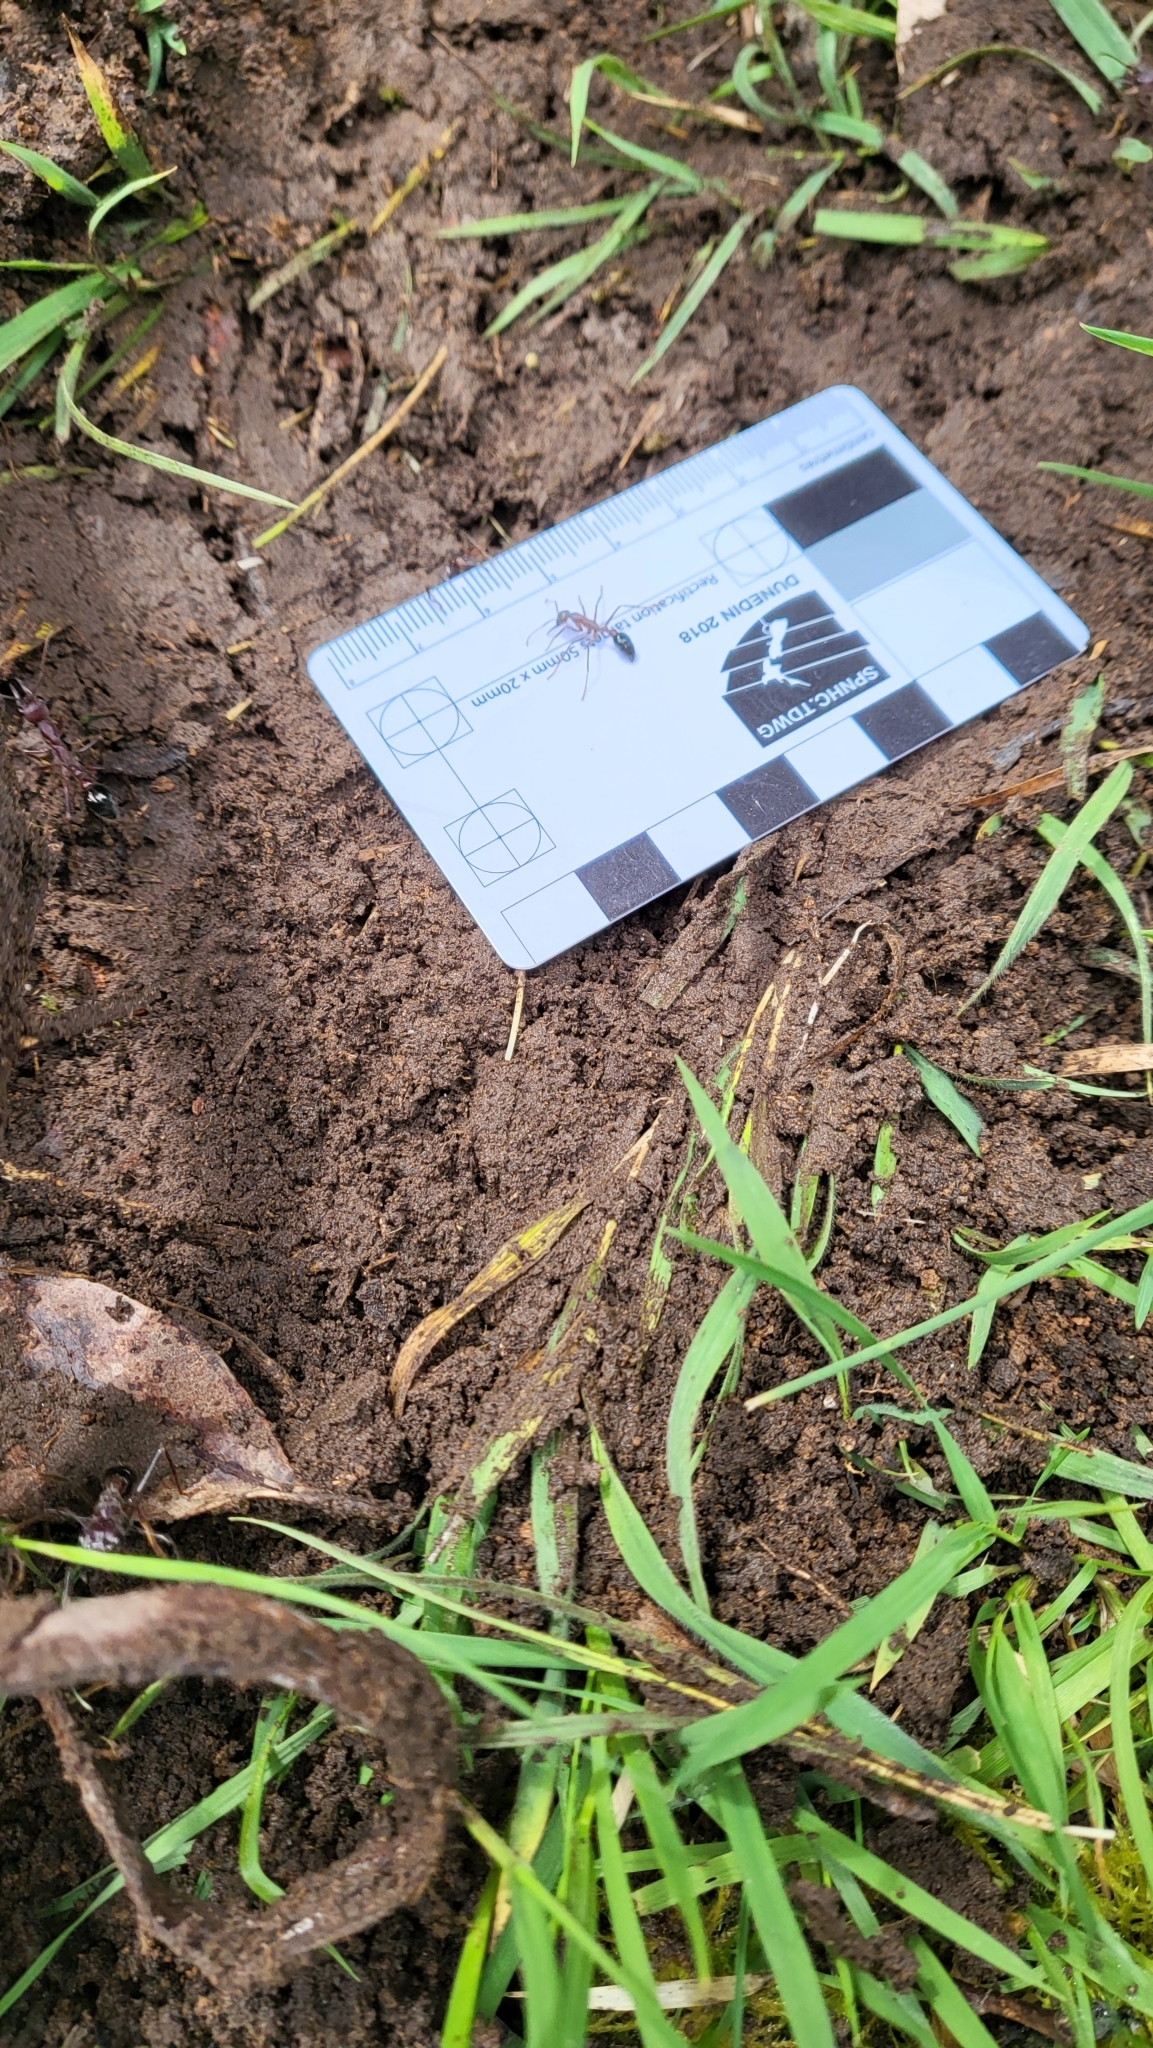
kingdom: Animalia
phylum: Arthropoda
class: Insecta
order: Hymenoptera
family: Formicidae
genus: Myrmecia
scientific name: Myrmecia forficata
